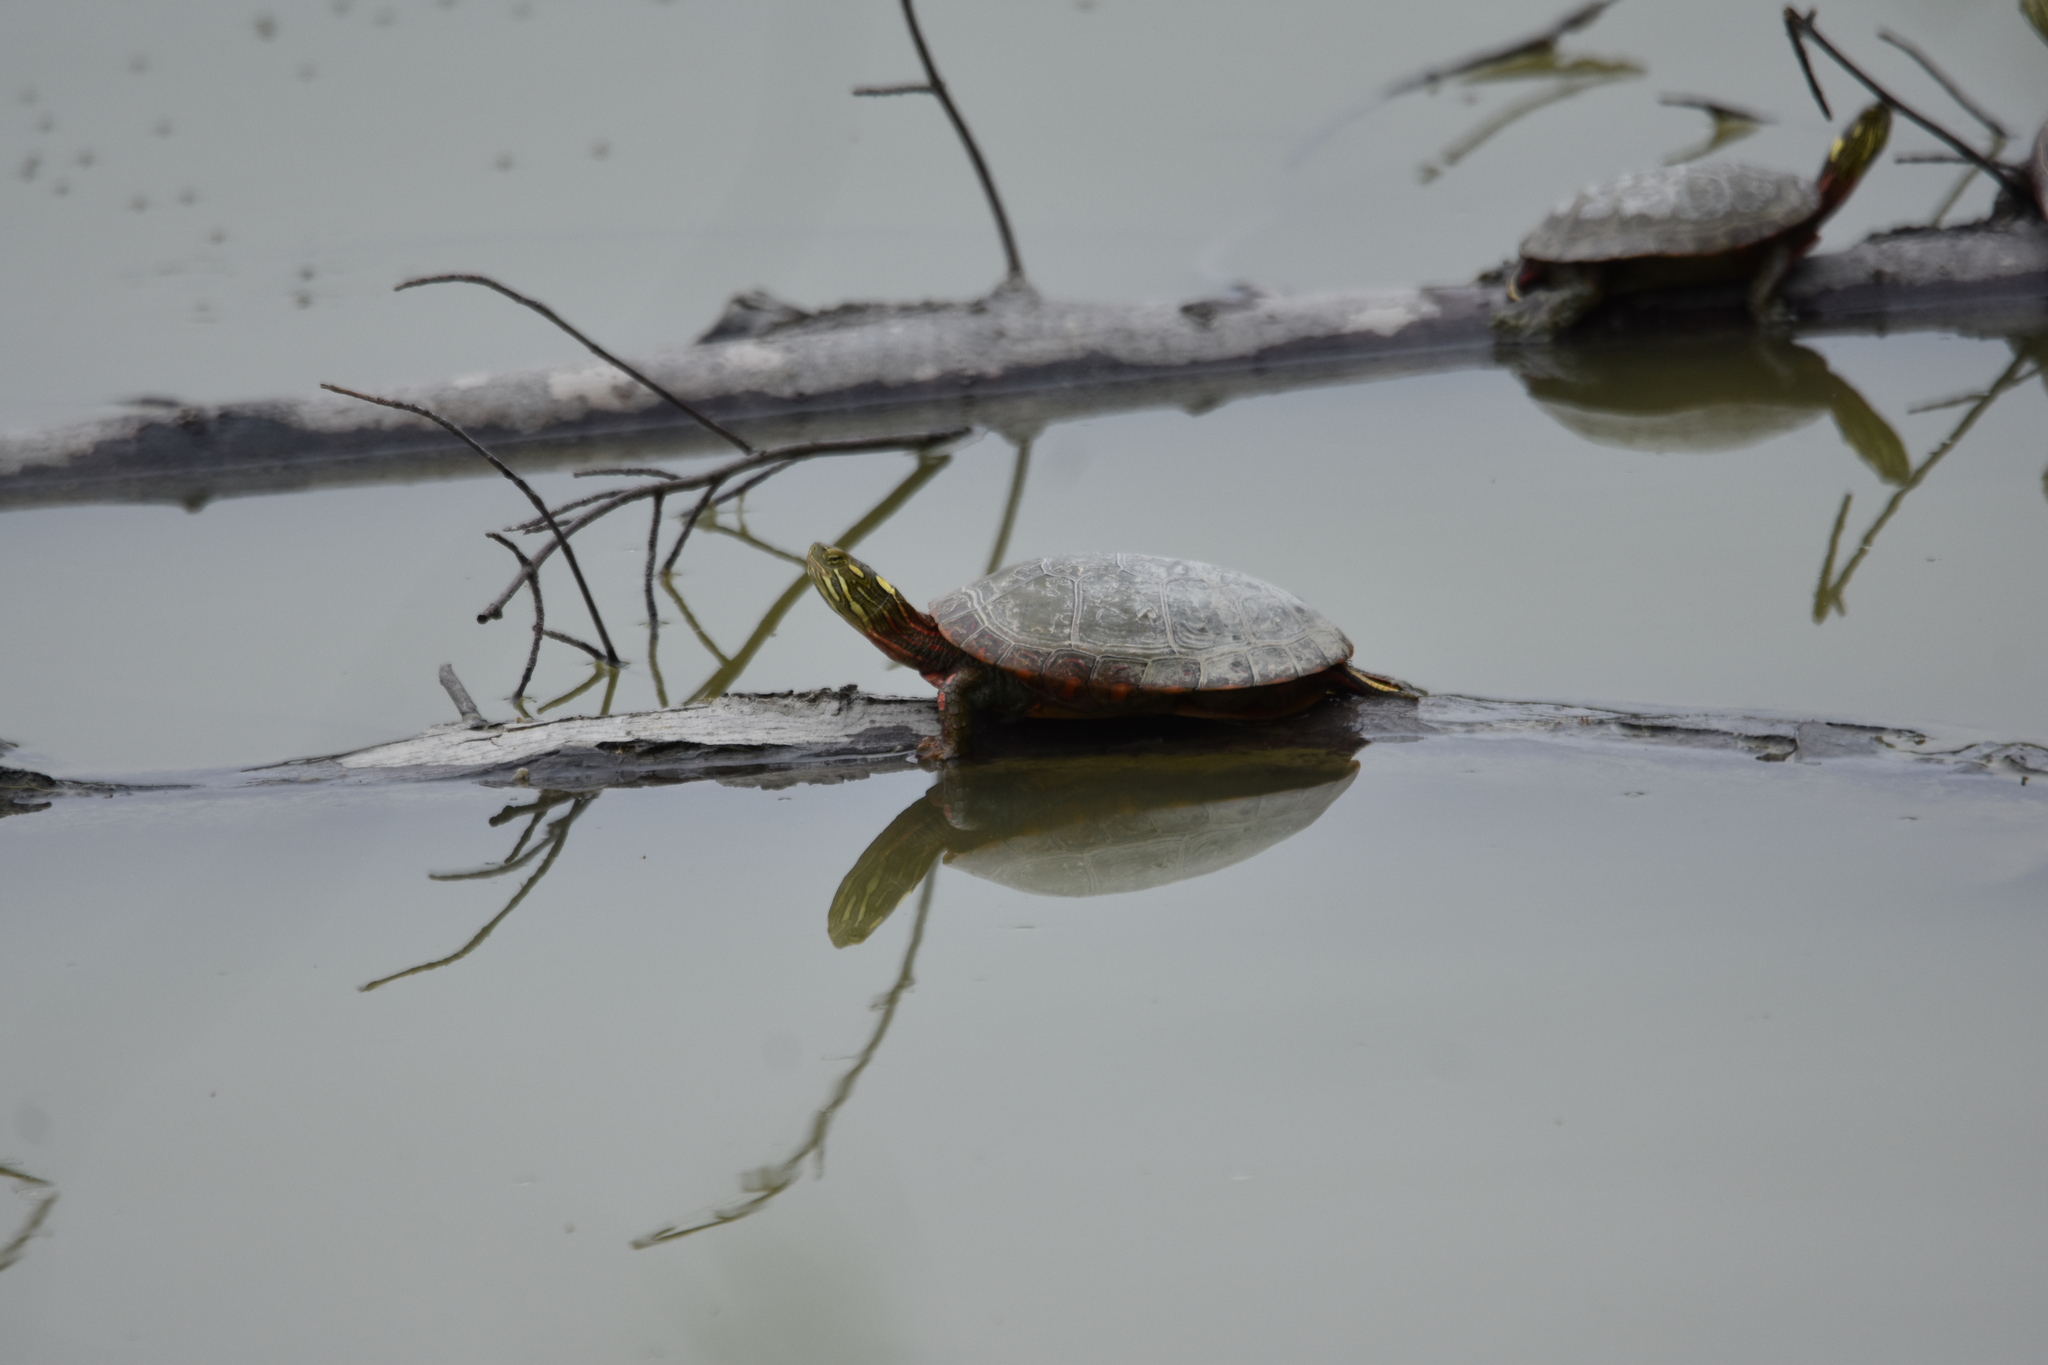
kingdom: Animalia
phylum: Chordata
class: Testudines
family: Emydidae
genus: Chrysemys
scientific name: Chrysemys picta
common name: Painted turtle
